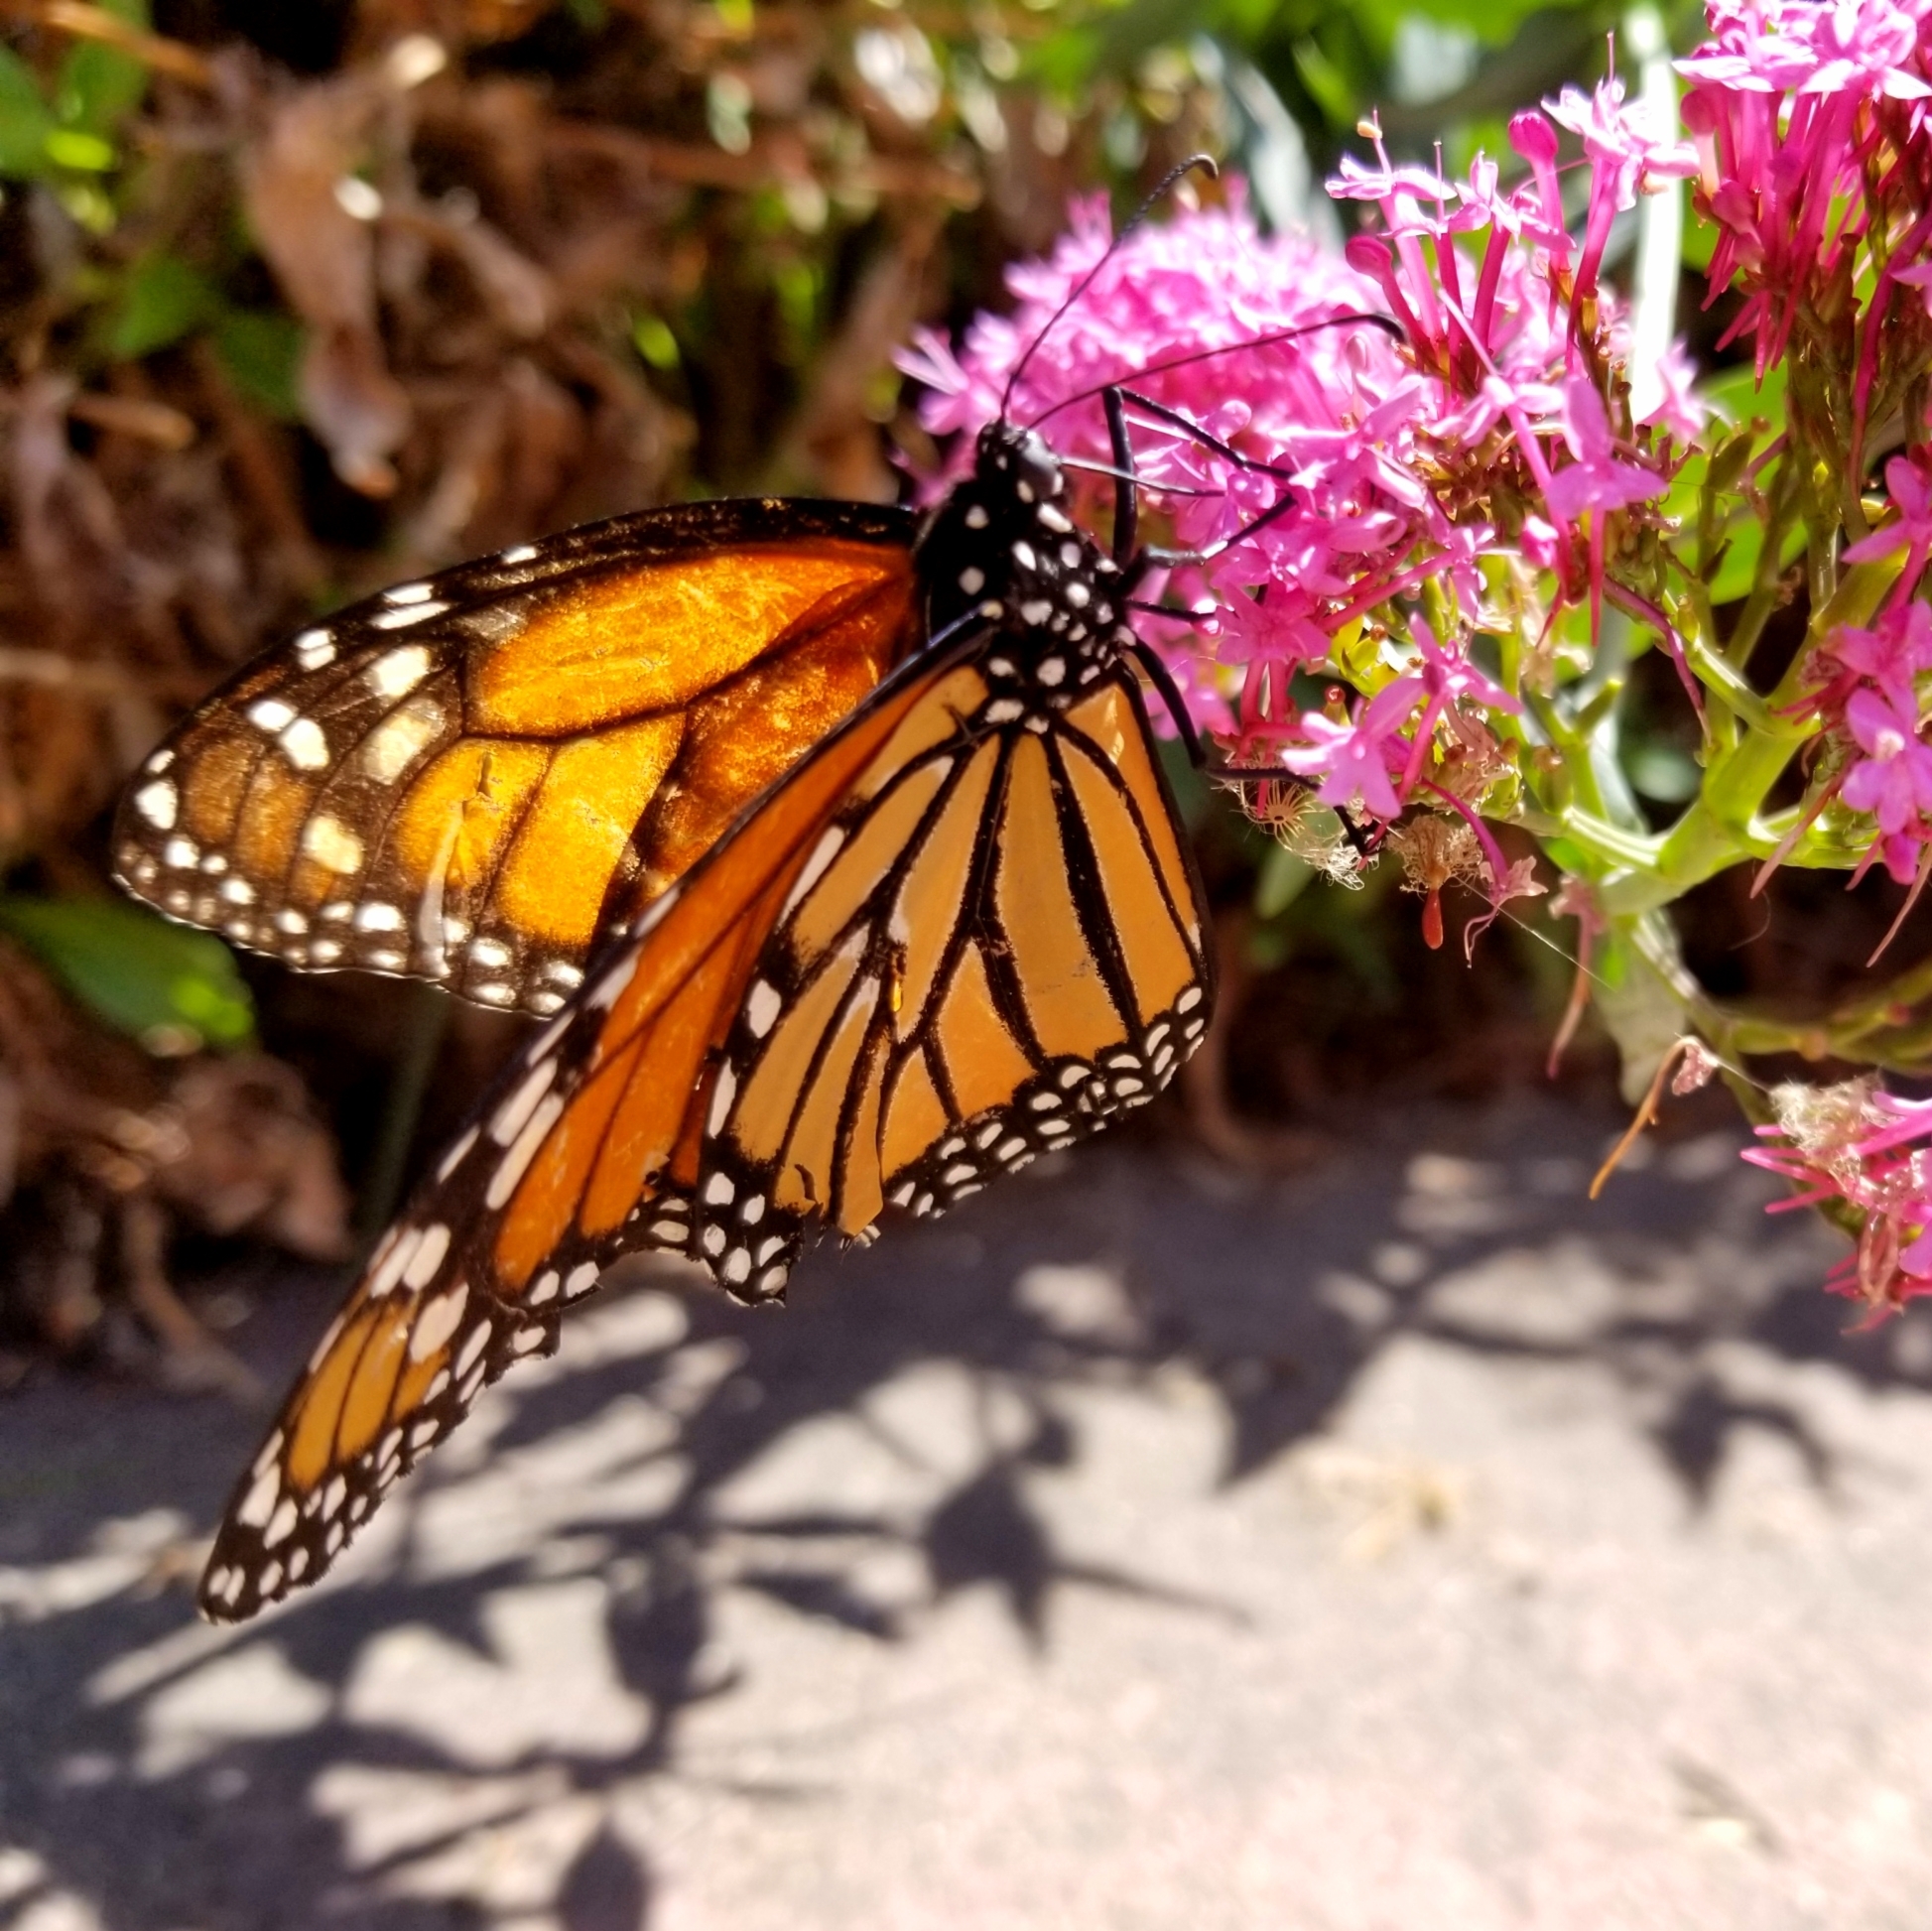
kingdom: Animalia
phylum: Arthropoda
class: Insecta
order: Lepidoptera
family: Nymphalidae
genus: Danaus
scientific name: Danaus plexippus
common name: Monarch
